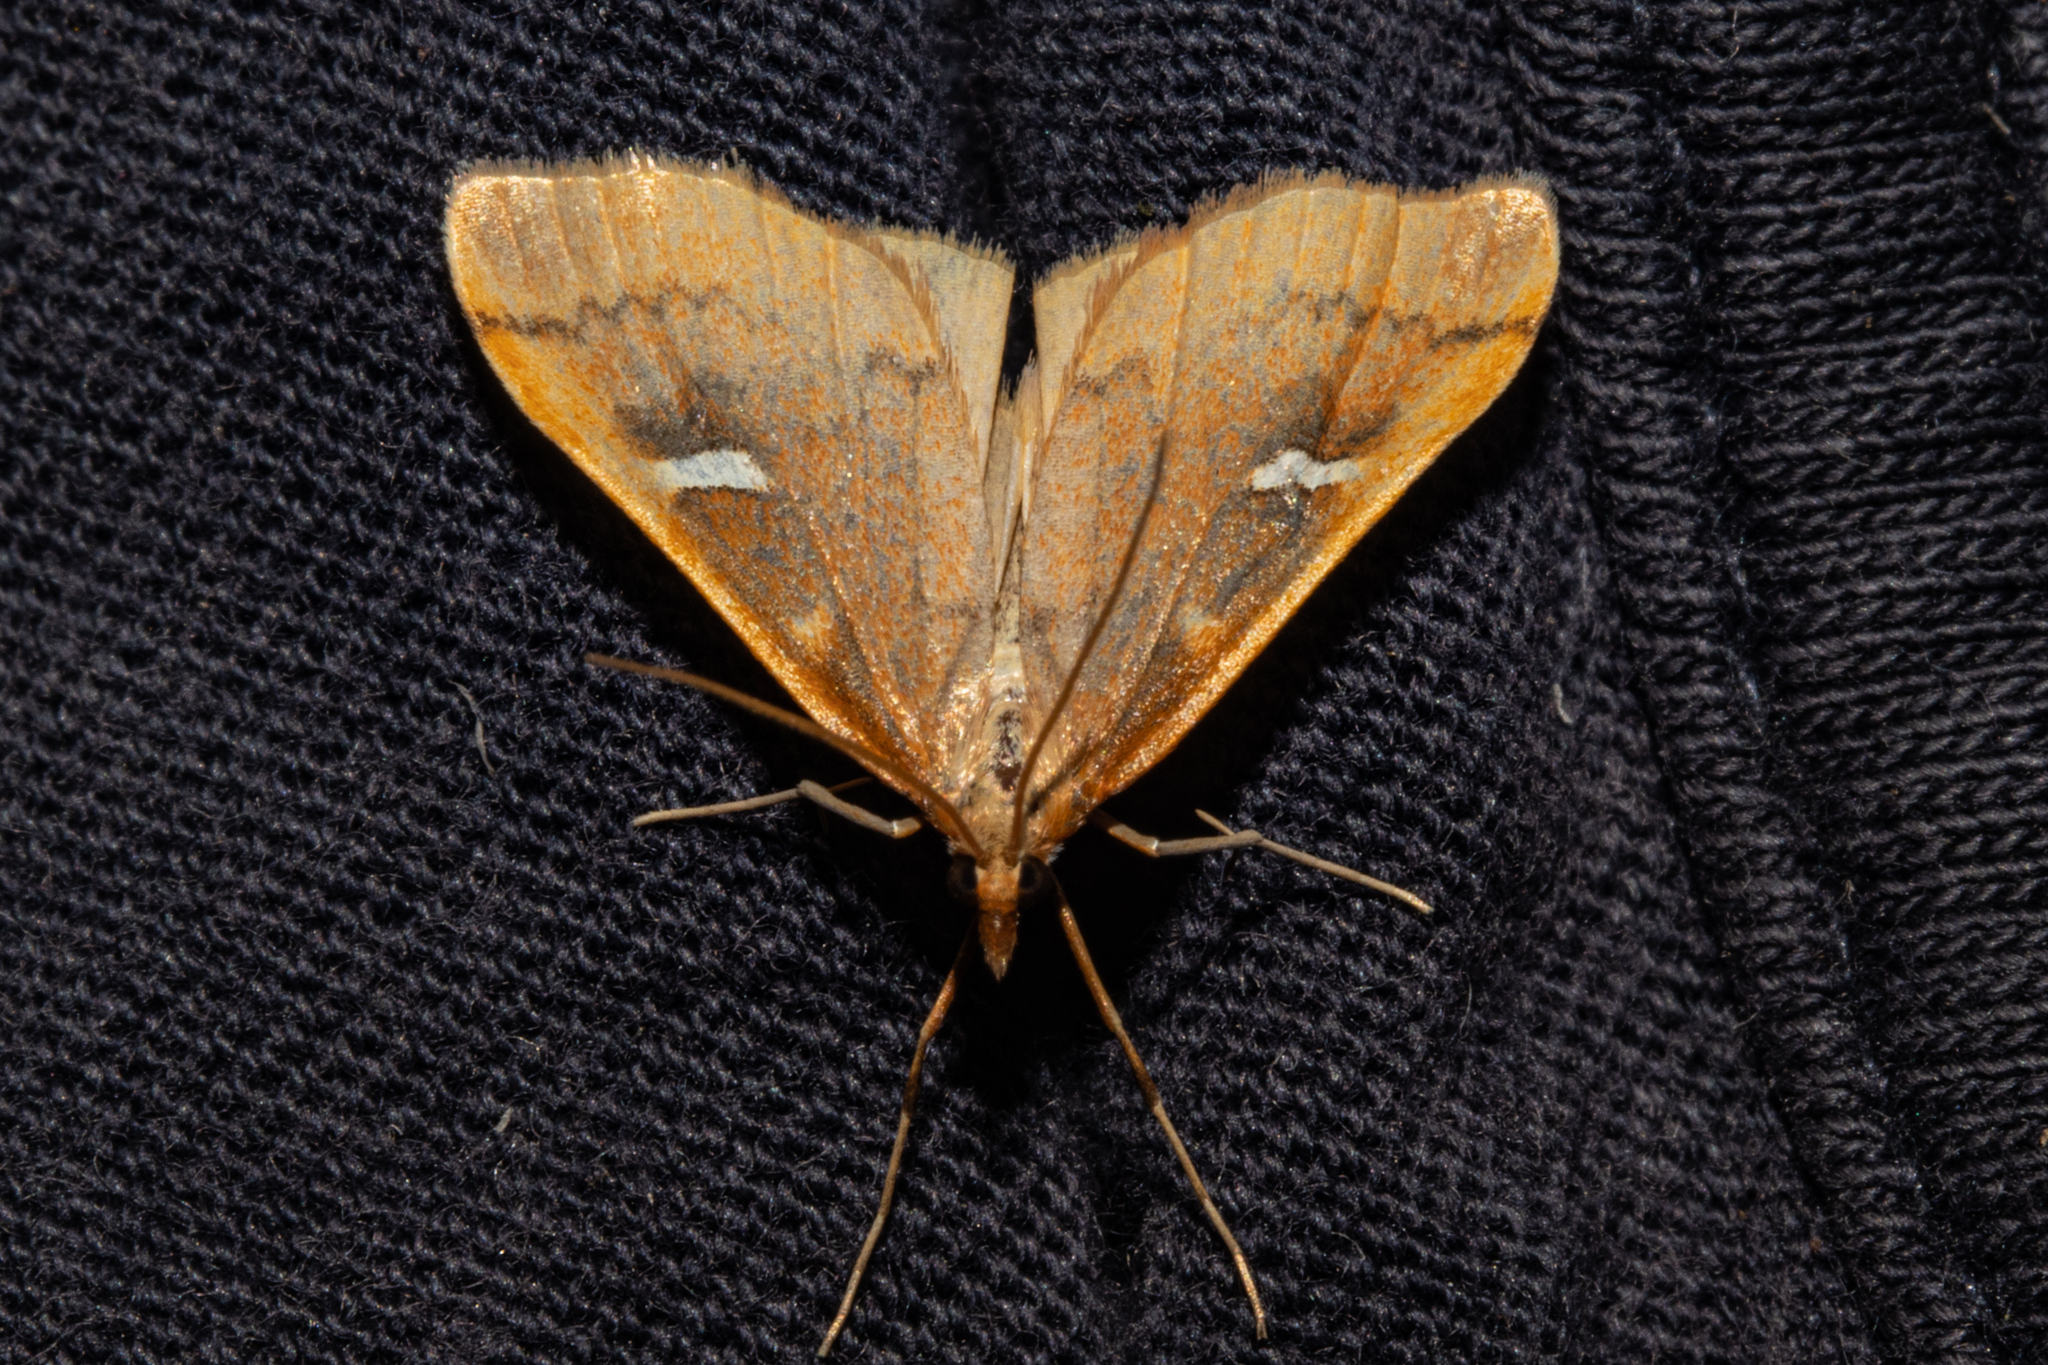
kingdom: Animalia
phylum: Arthropoda
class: Insecta
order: Lepidoptera
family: Crambidae
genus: Udea
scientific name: Udea notata
